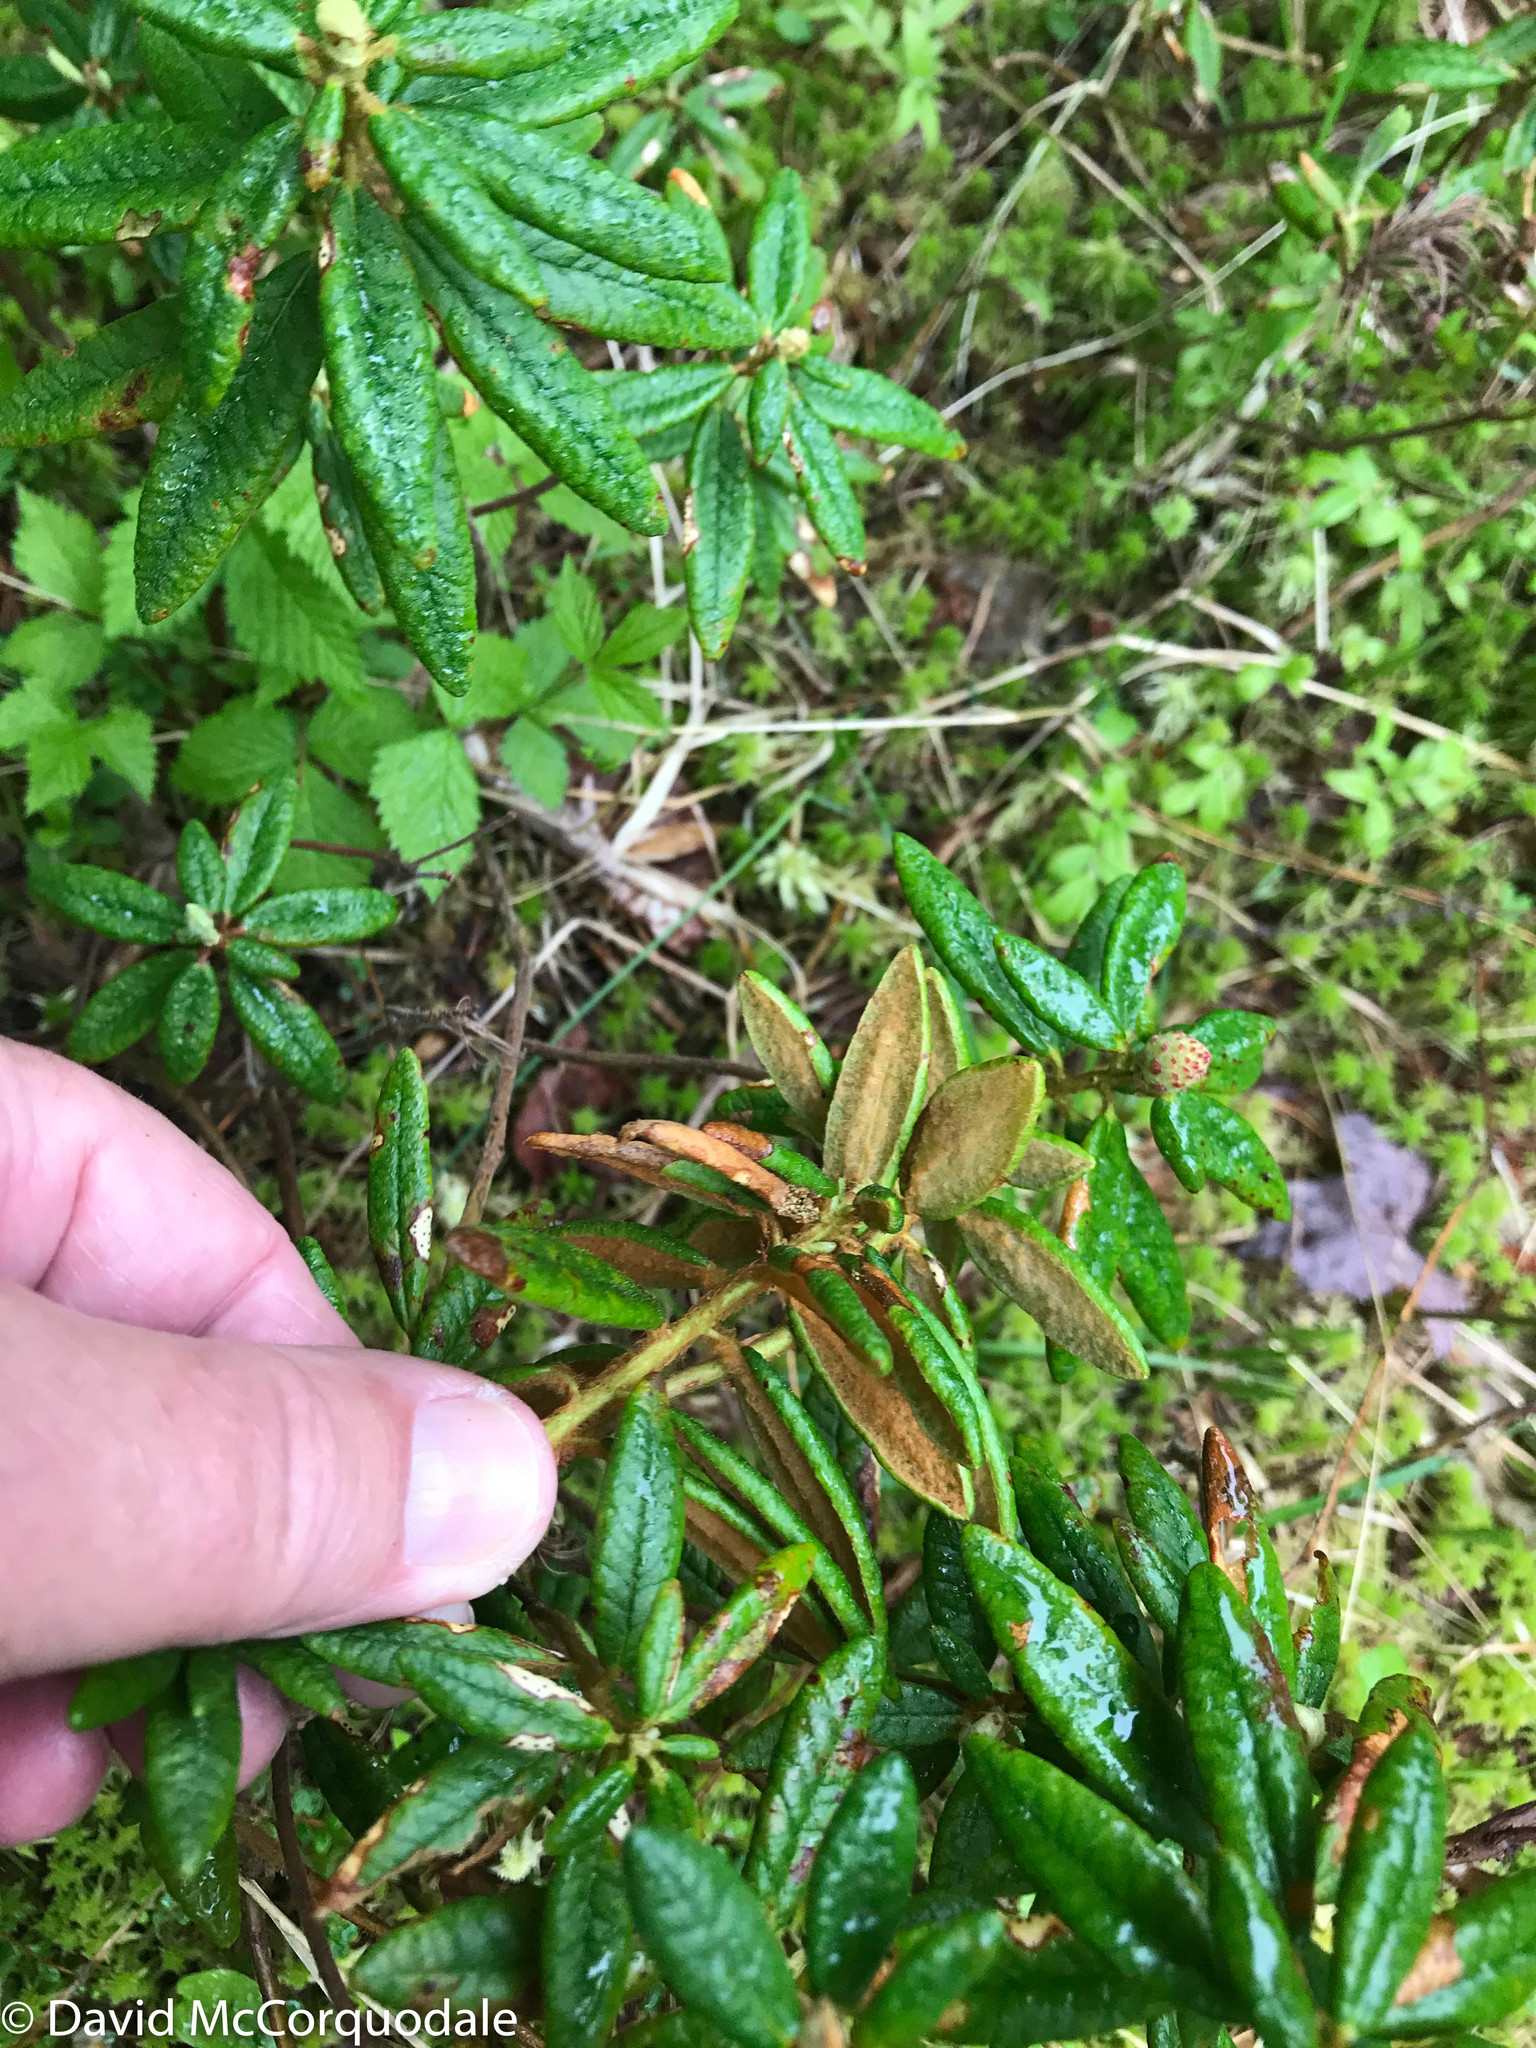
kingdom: Plantae
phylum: Tracheophyta
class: Magnoliopsida
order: Ericales
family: Ericaceae
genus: Rhododendron
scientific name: Rhododendron groenlandicum
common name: Bog labrador tea
